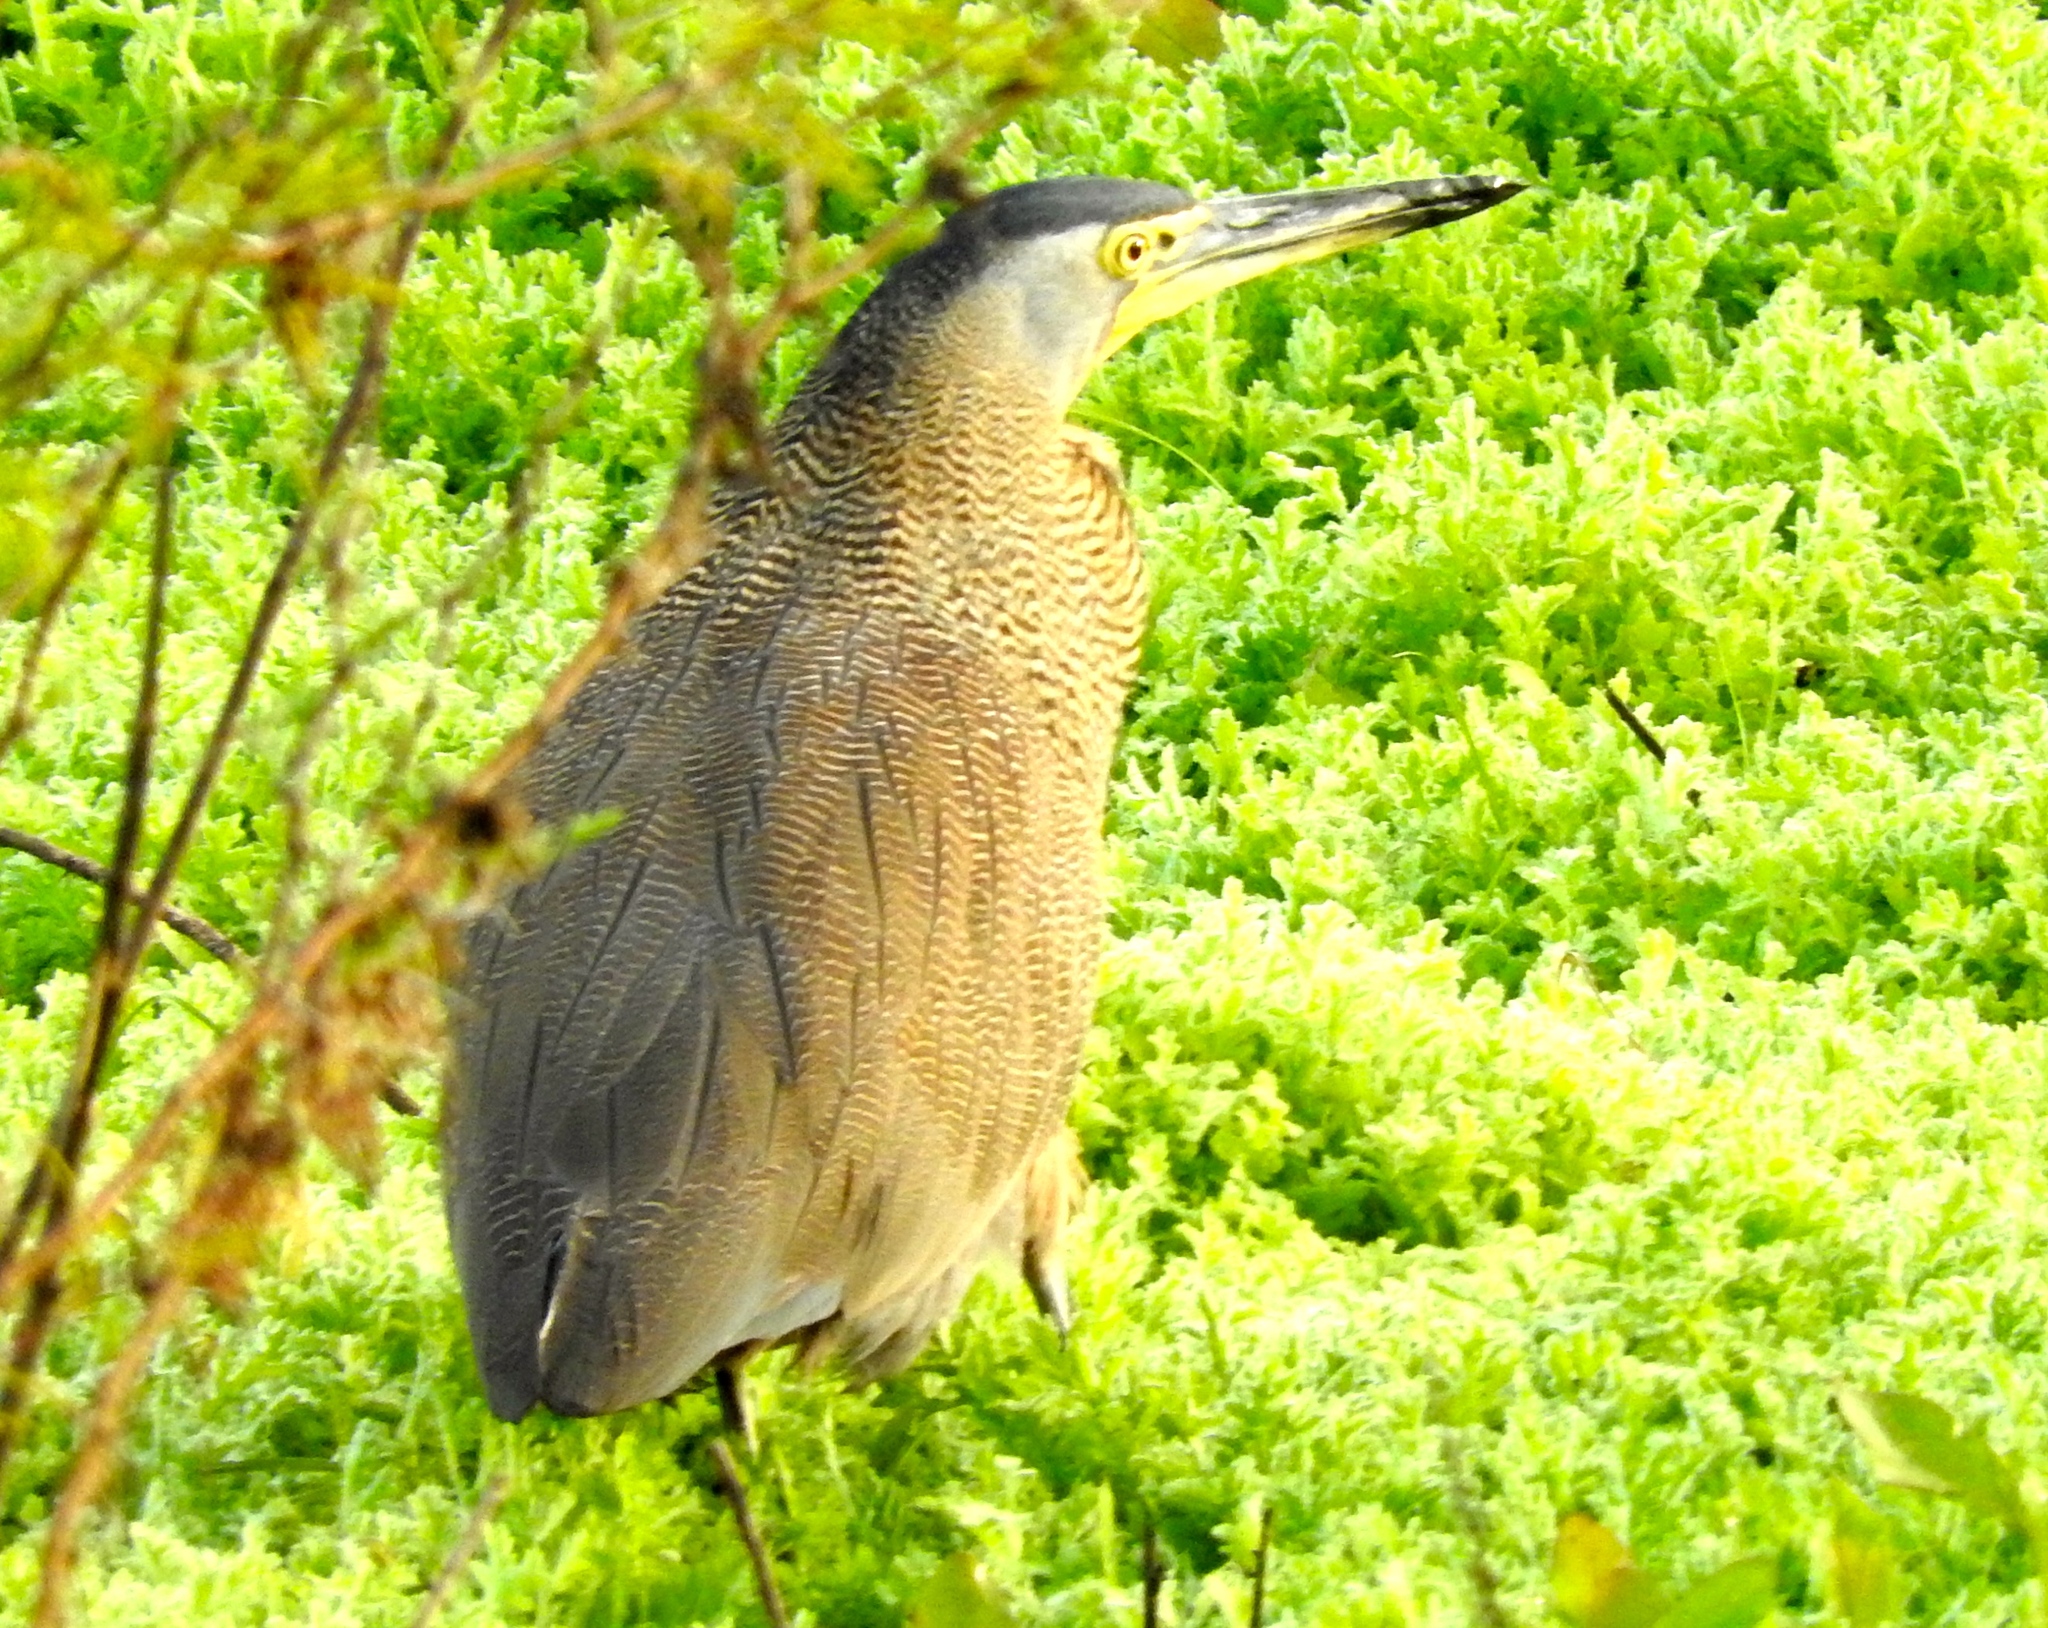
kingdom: Animalia
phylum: Chordata
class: Aves
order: Pelecaniformes
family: Ardeidae
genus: Tigrisoma
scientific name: Tigrisoma mexicanum
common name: Bare-throated tiger-heron
